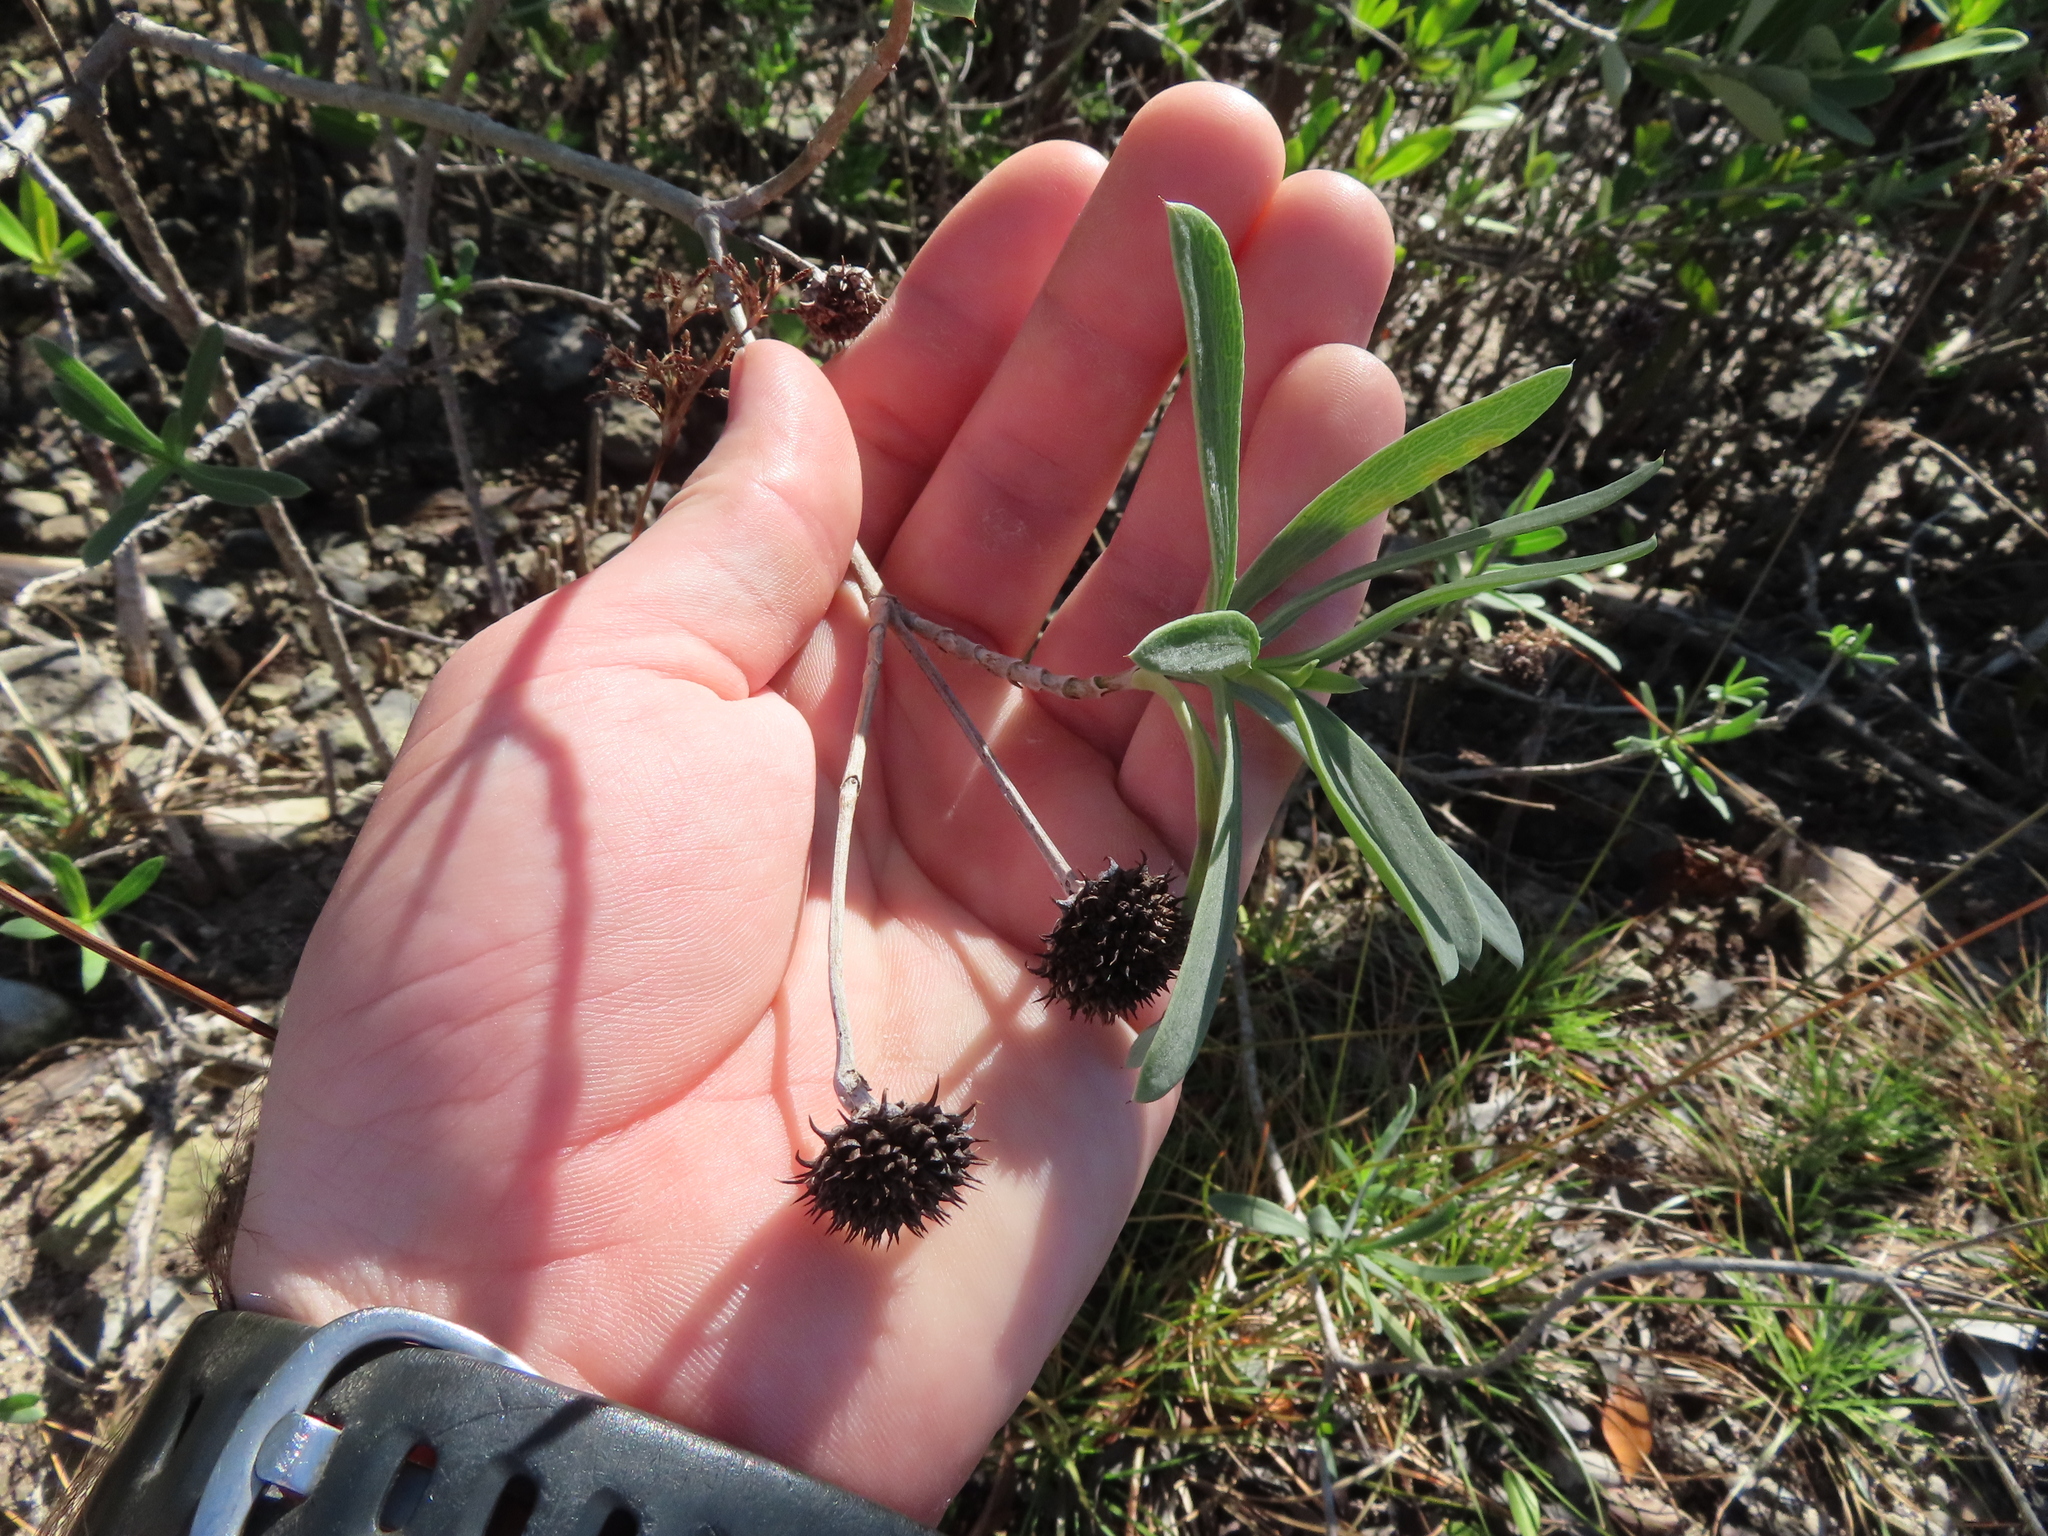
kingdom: Plantae
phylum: Tracheophyta
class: Magnoliopsida
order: Asterales
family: Asteraceae
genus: Borrichia
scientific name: Borrichia frutescens
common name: Sea oxeye
